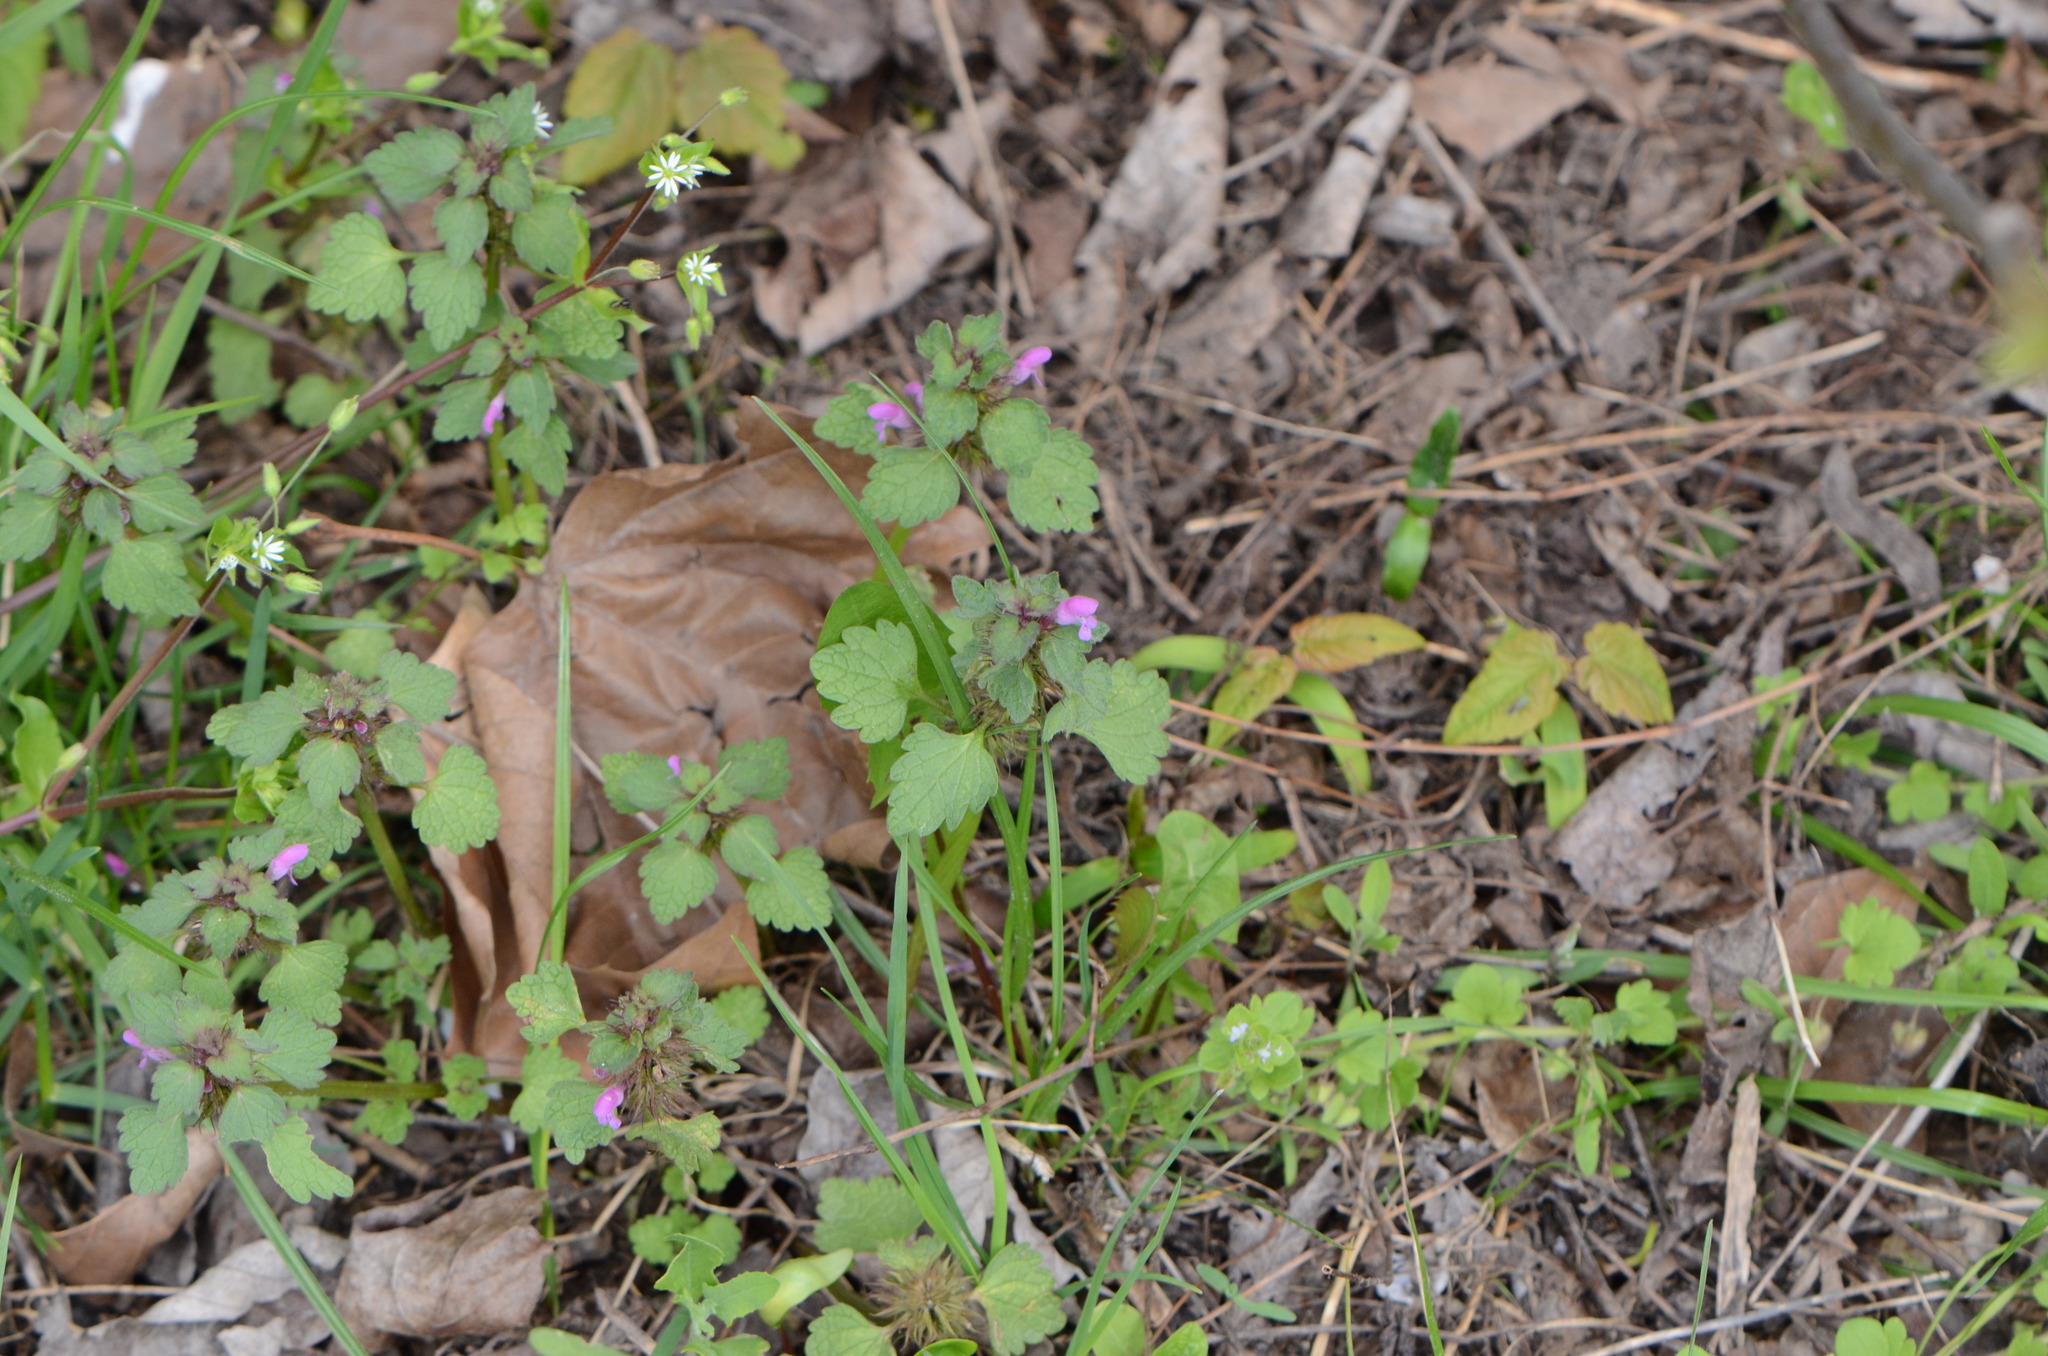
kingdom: Plantae
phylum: Tracheophyta
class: Magnoliopsida
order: Lamiales
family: Lamiaceae
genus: Lamium
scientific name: Lamium purpureum
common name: Red dead-nettle
